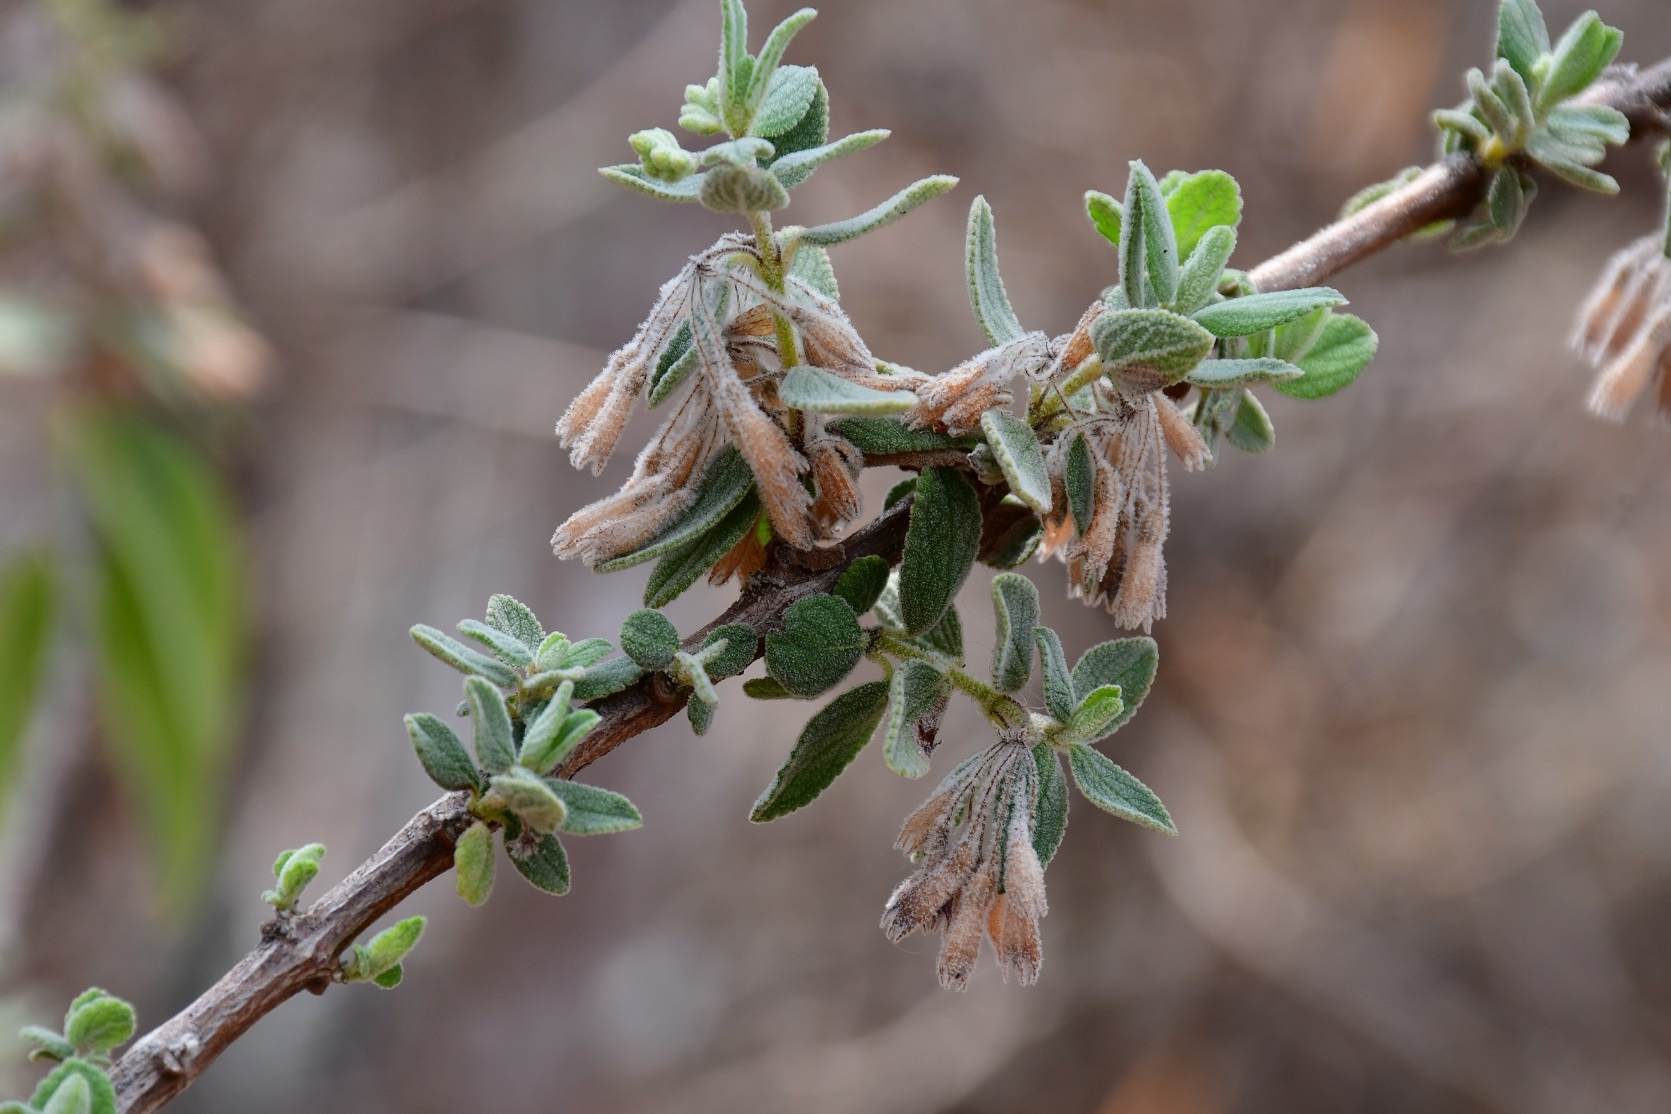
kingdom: Plantae
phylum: Tracheophyta
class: Magnoliopsida
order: Lamiales
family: Lamiaceae
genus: Condea
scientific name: Condea tomentosa
